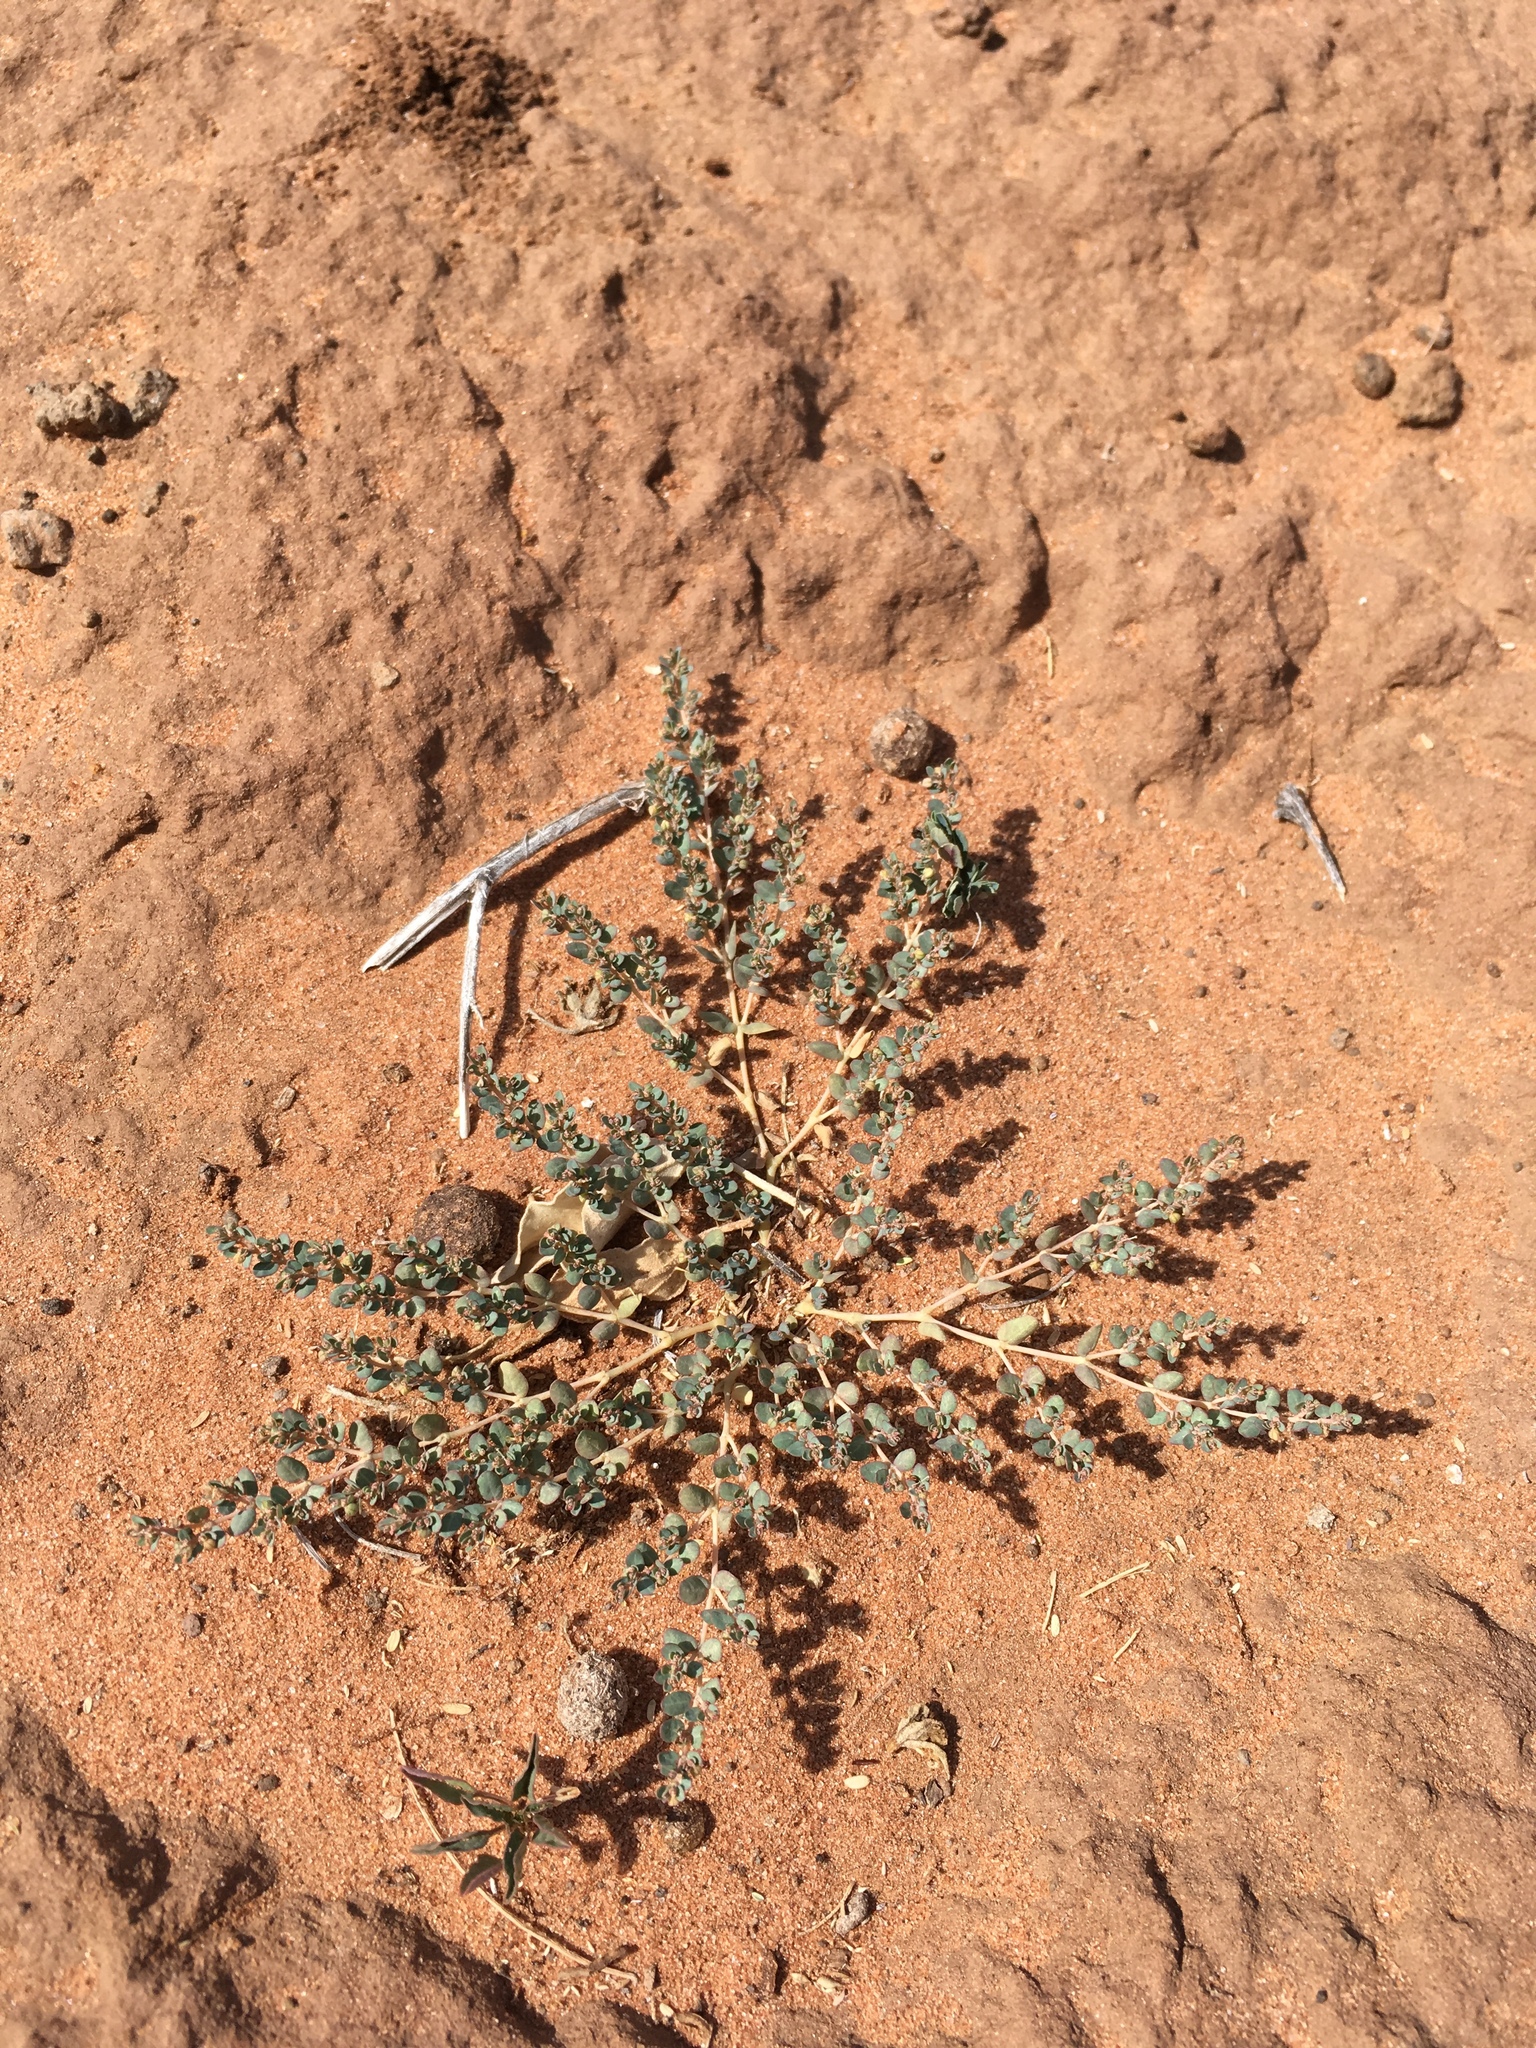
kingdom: Plantae
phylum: Tracheophyta
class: Magnoliopsida
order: Malpighiales
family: Euphorbiaceae
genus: Euphorbia
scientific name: Euphorbia micromera
